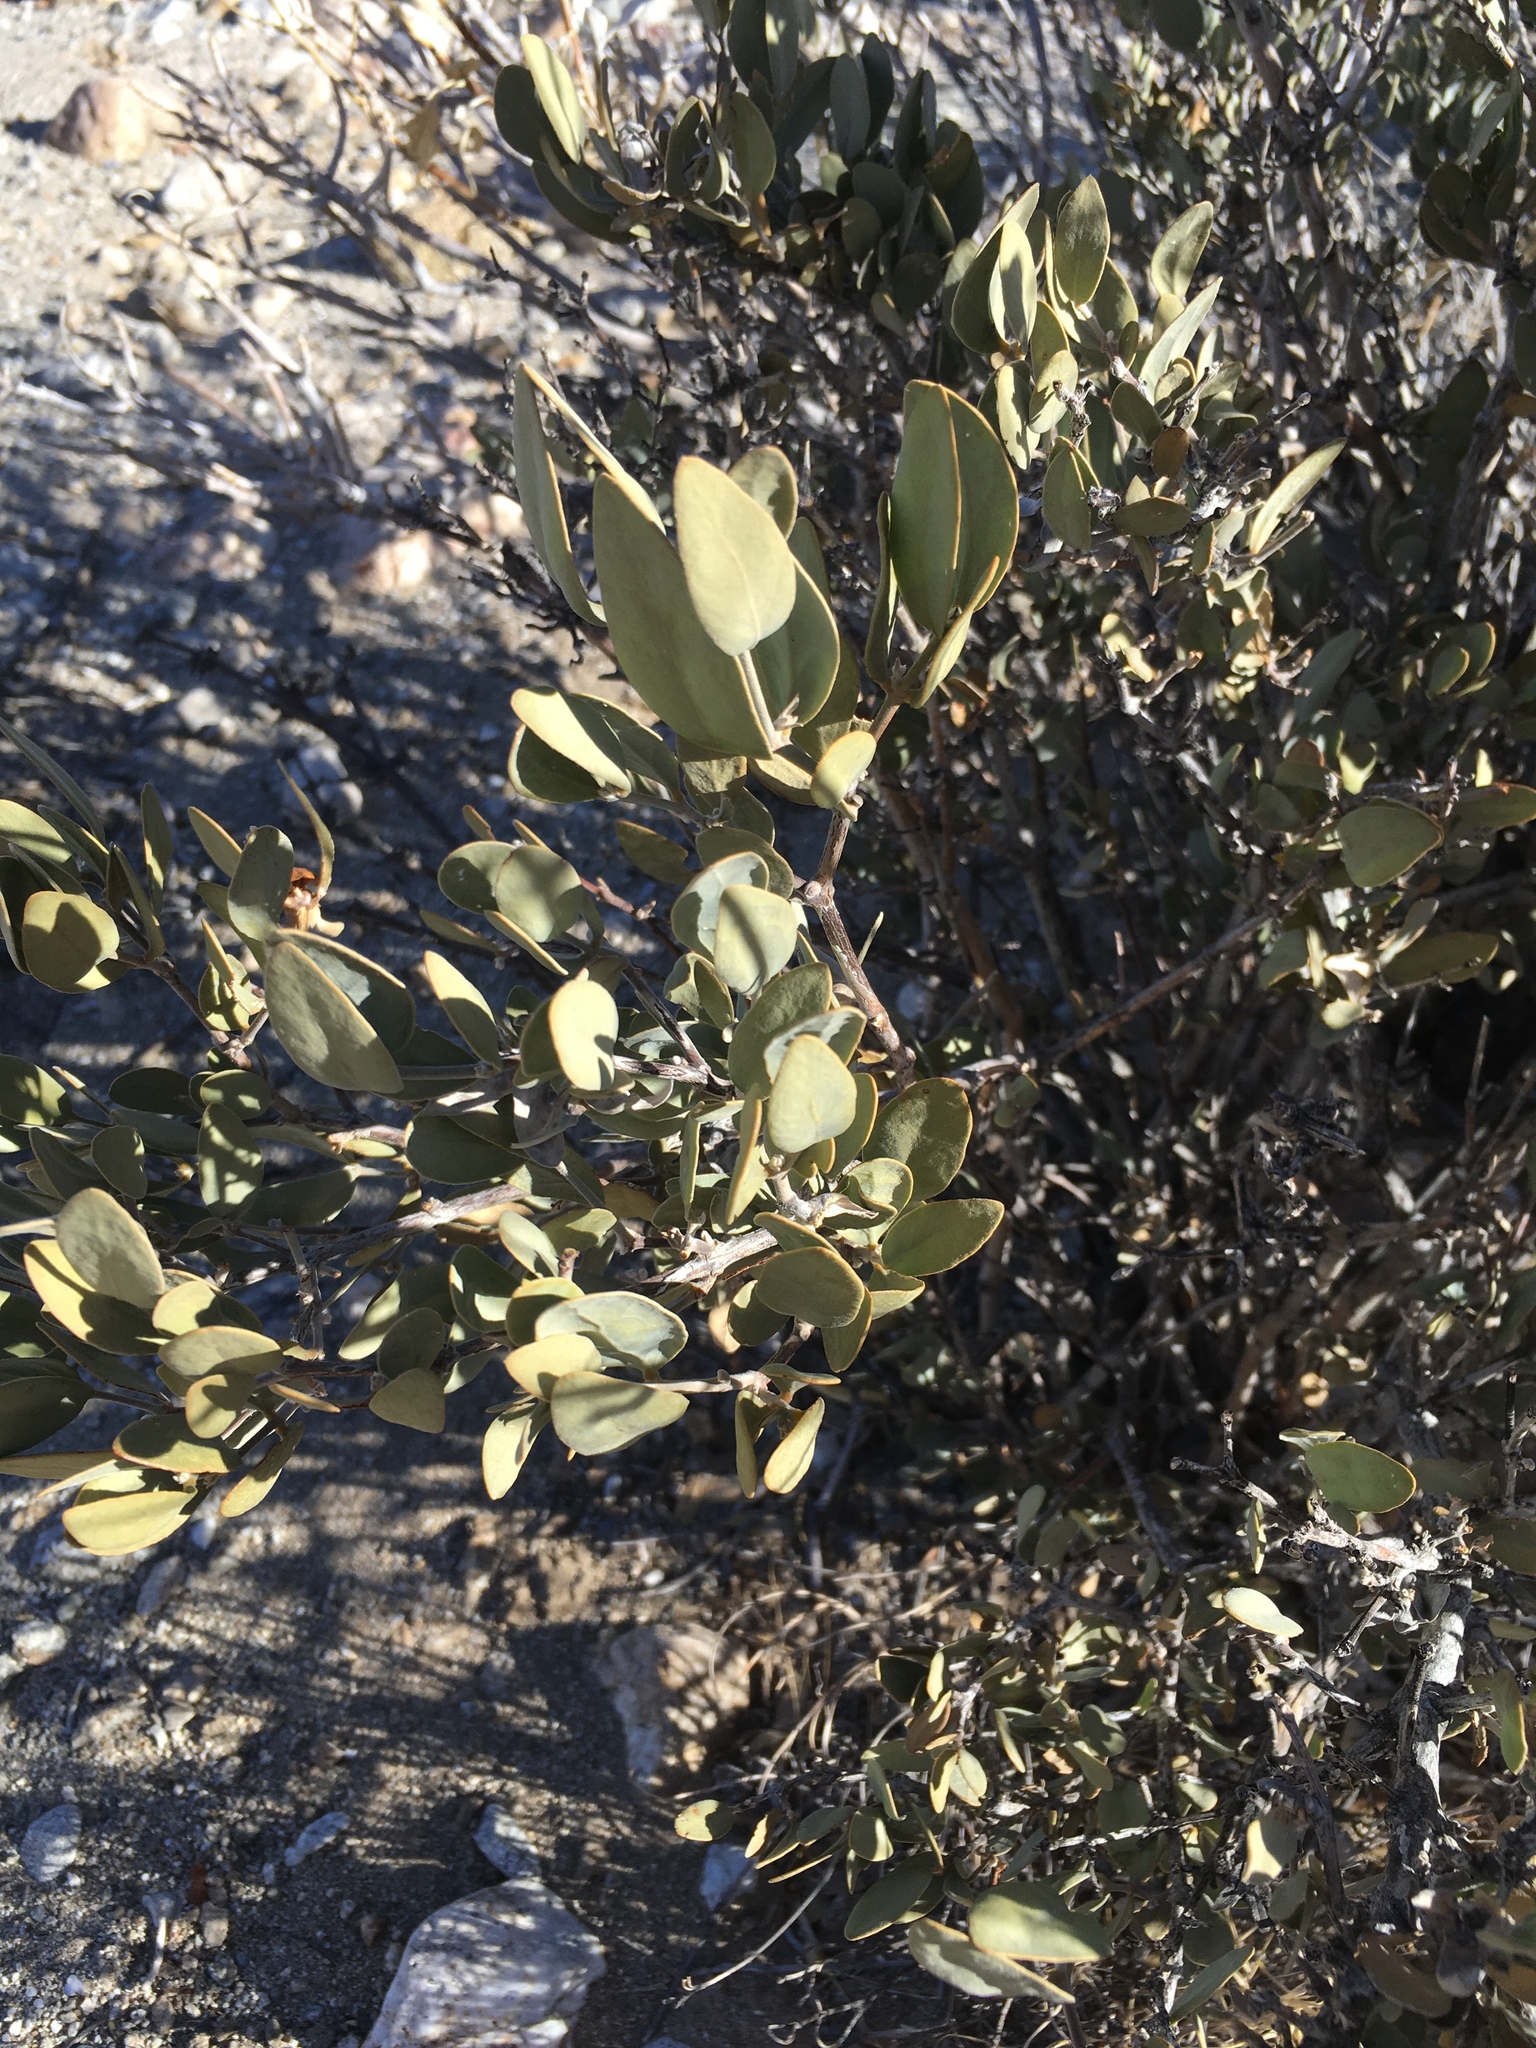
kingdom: Plantae
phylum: Tracheophyta
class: Magnoliopsida
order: Caryophyllales
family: Simmondsiaceae
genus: Simmondsia
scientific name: Simmondsia chinensis
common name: Jojoba
